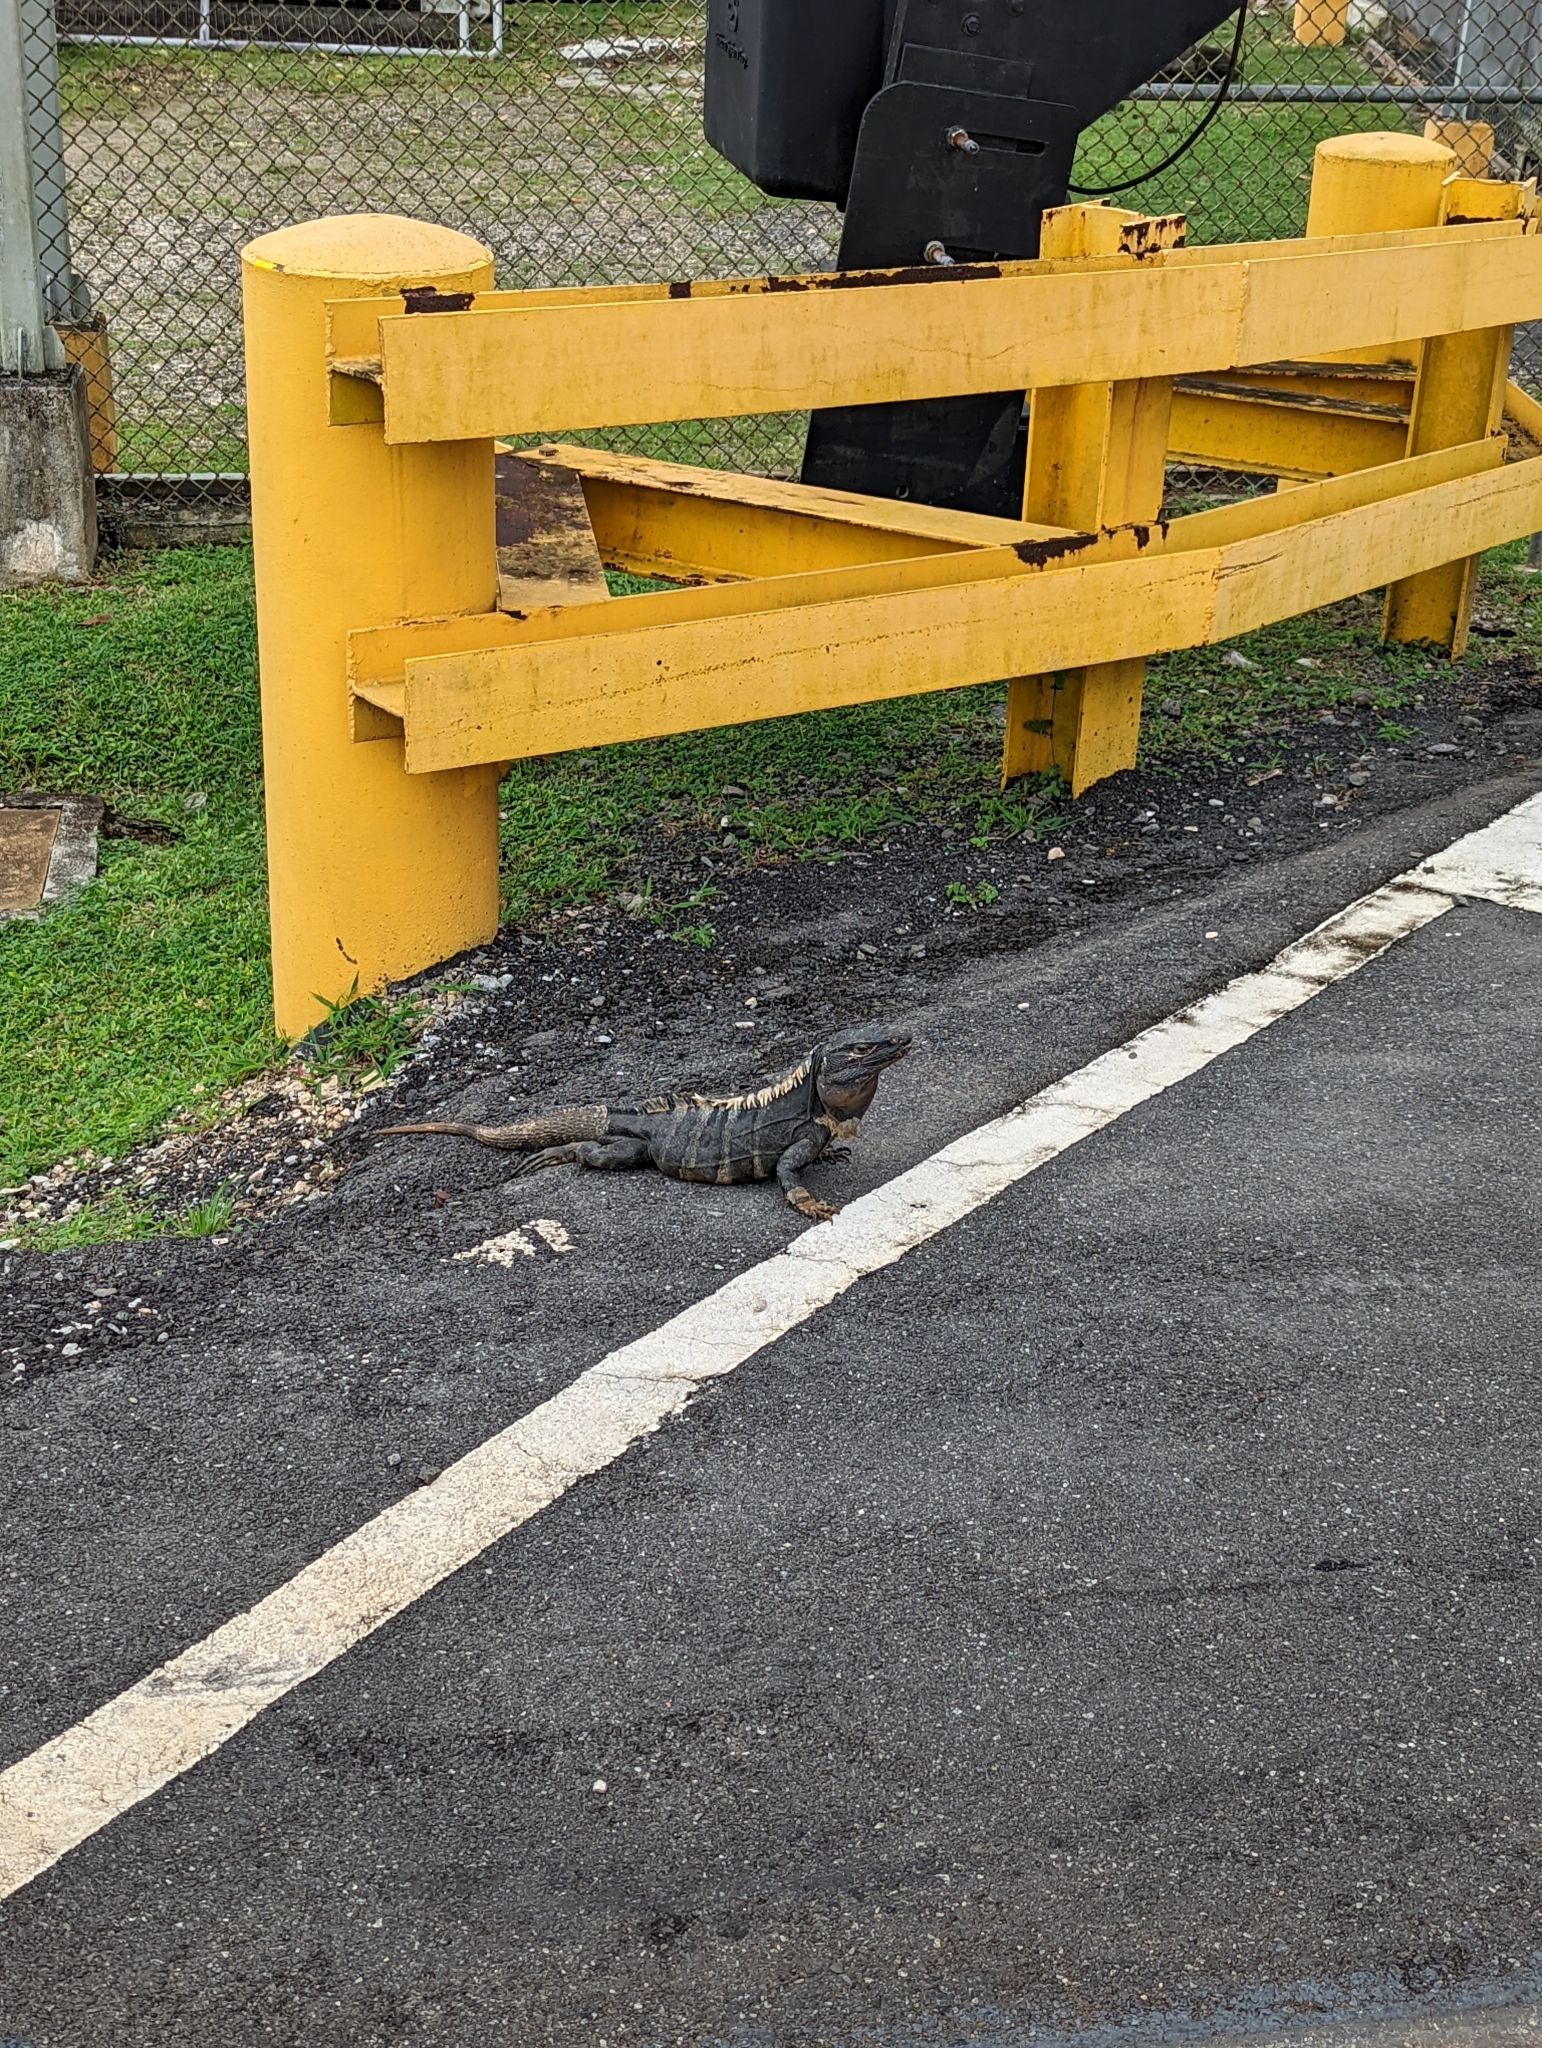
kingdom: Animalia
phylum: Chordata
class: Squamata
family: Iguanidae
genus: Ctenosaura
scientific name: Ctenosaura similis
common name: Black spiny-tailed iguana
